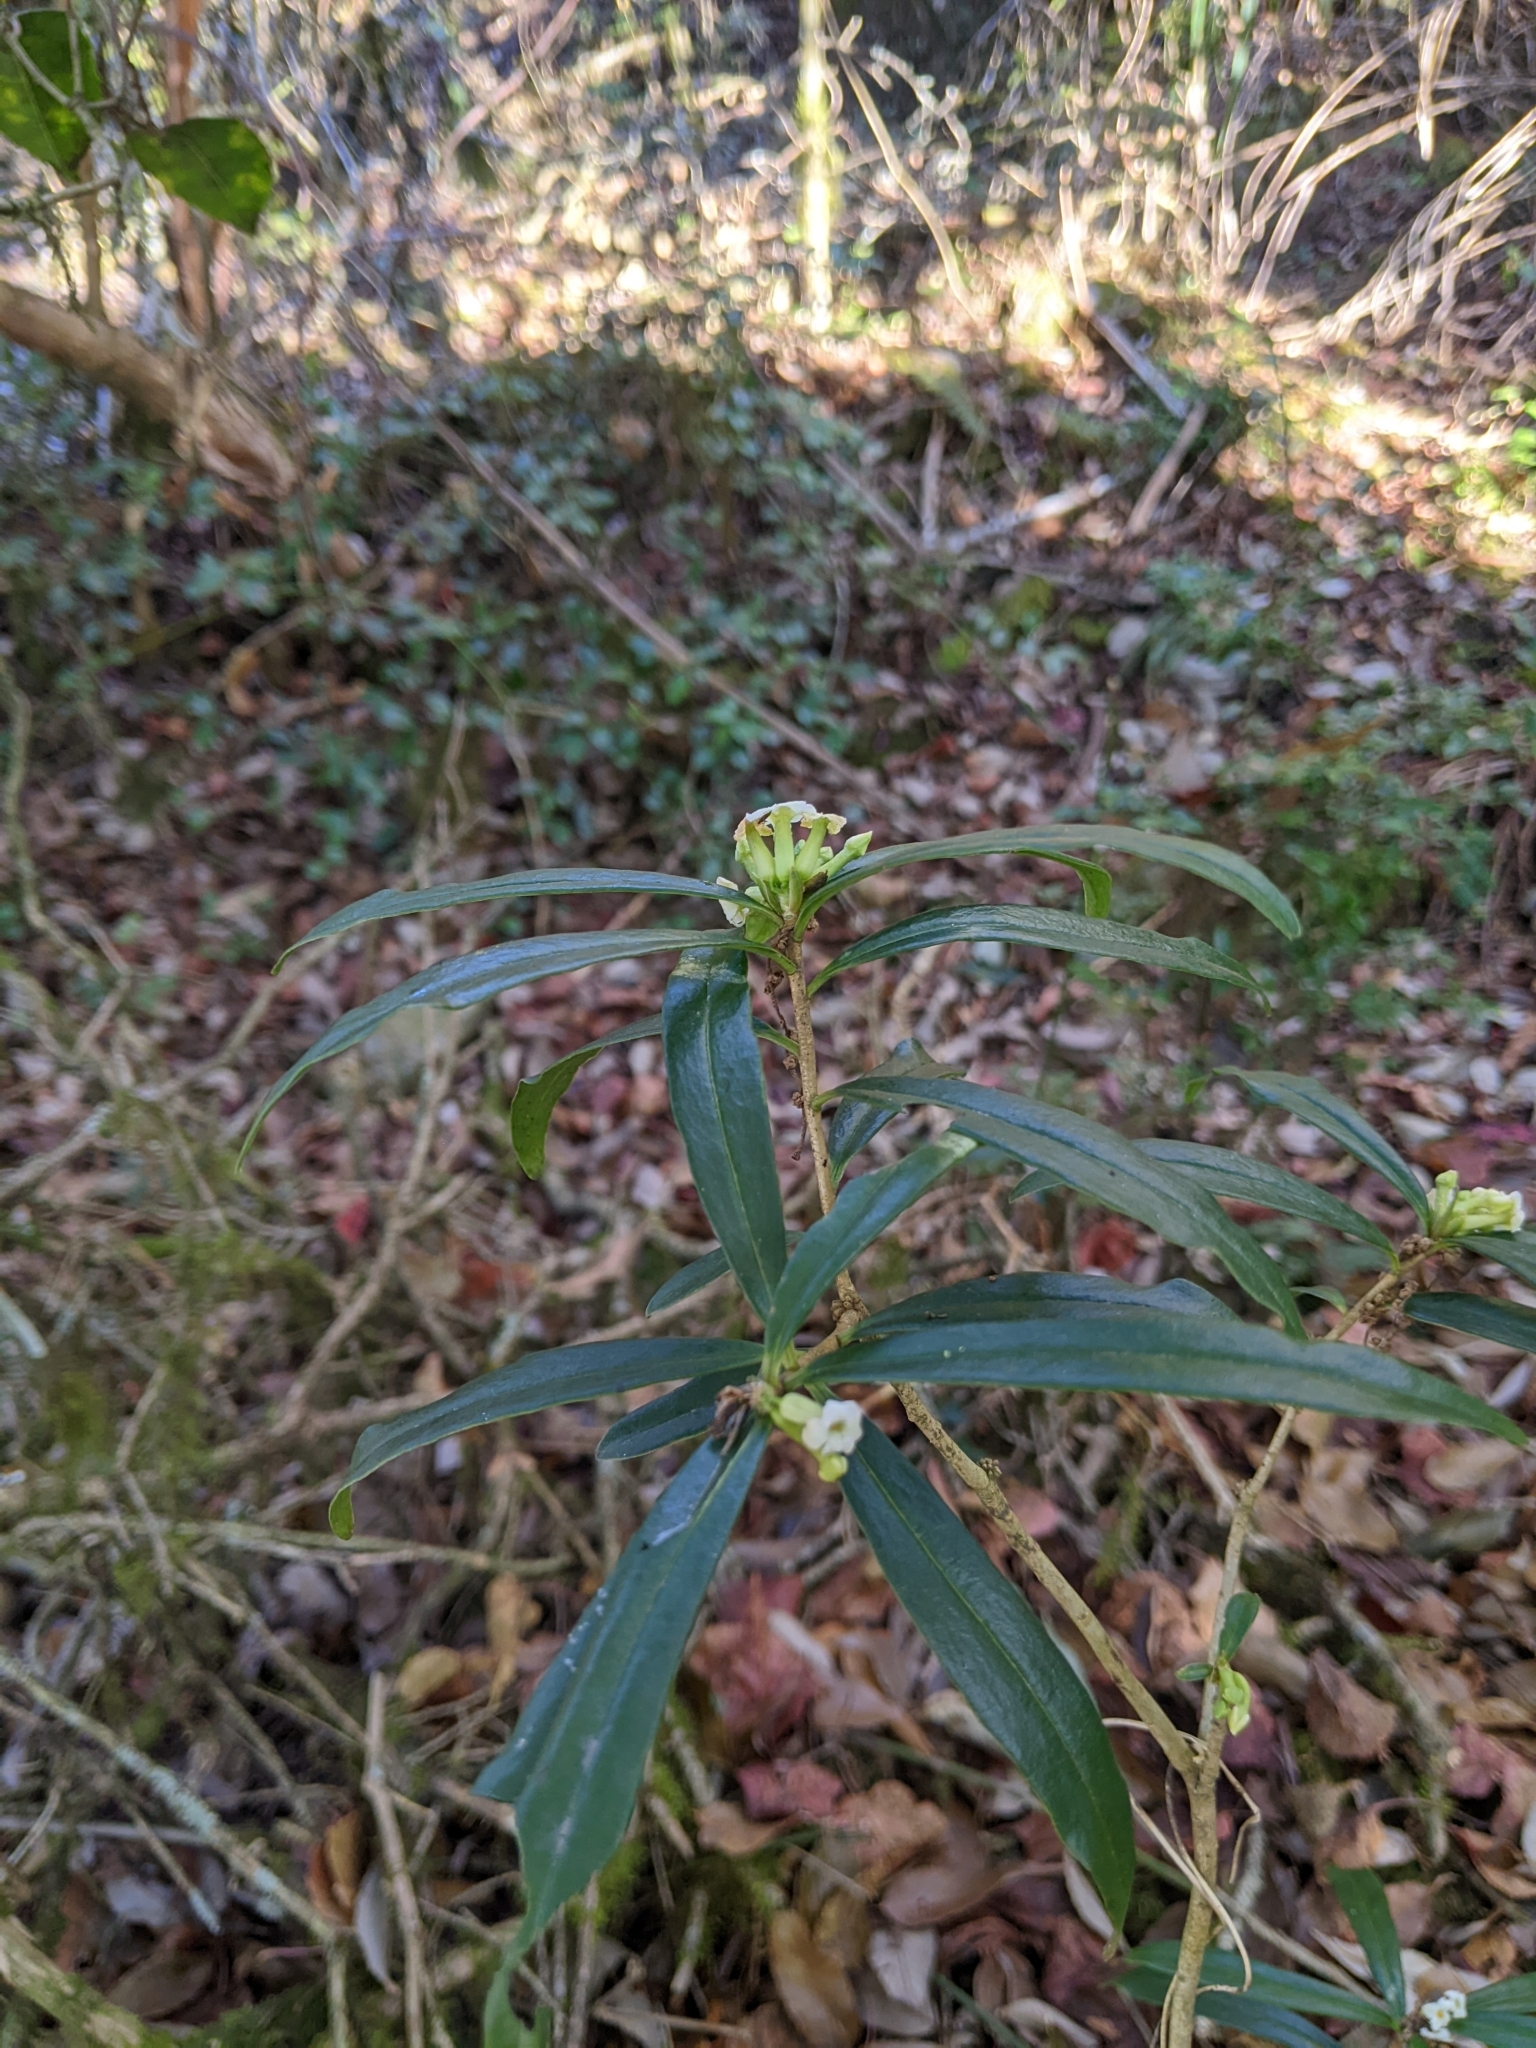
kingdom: Plantae
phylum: Tracheophyta
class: Magnoliopsida
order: Malvales
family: Thymelaeaceae
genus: Daphne
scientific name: Daphne arisanensis
